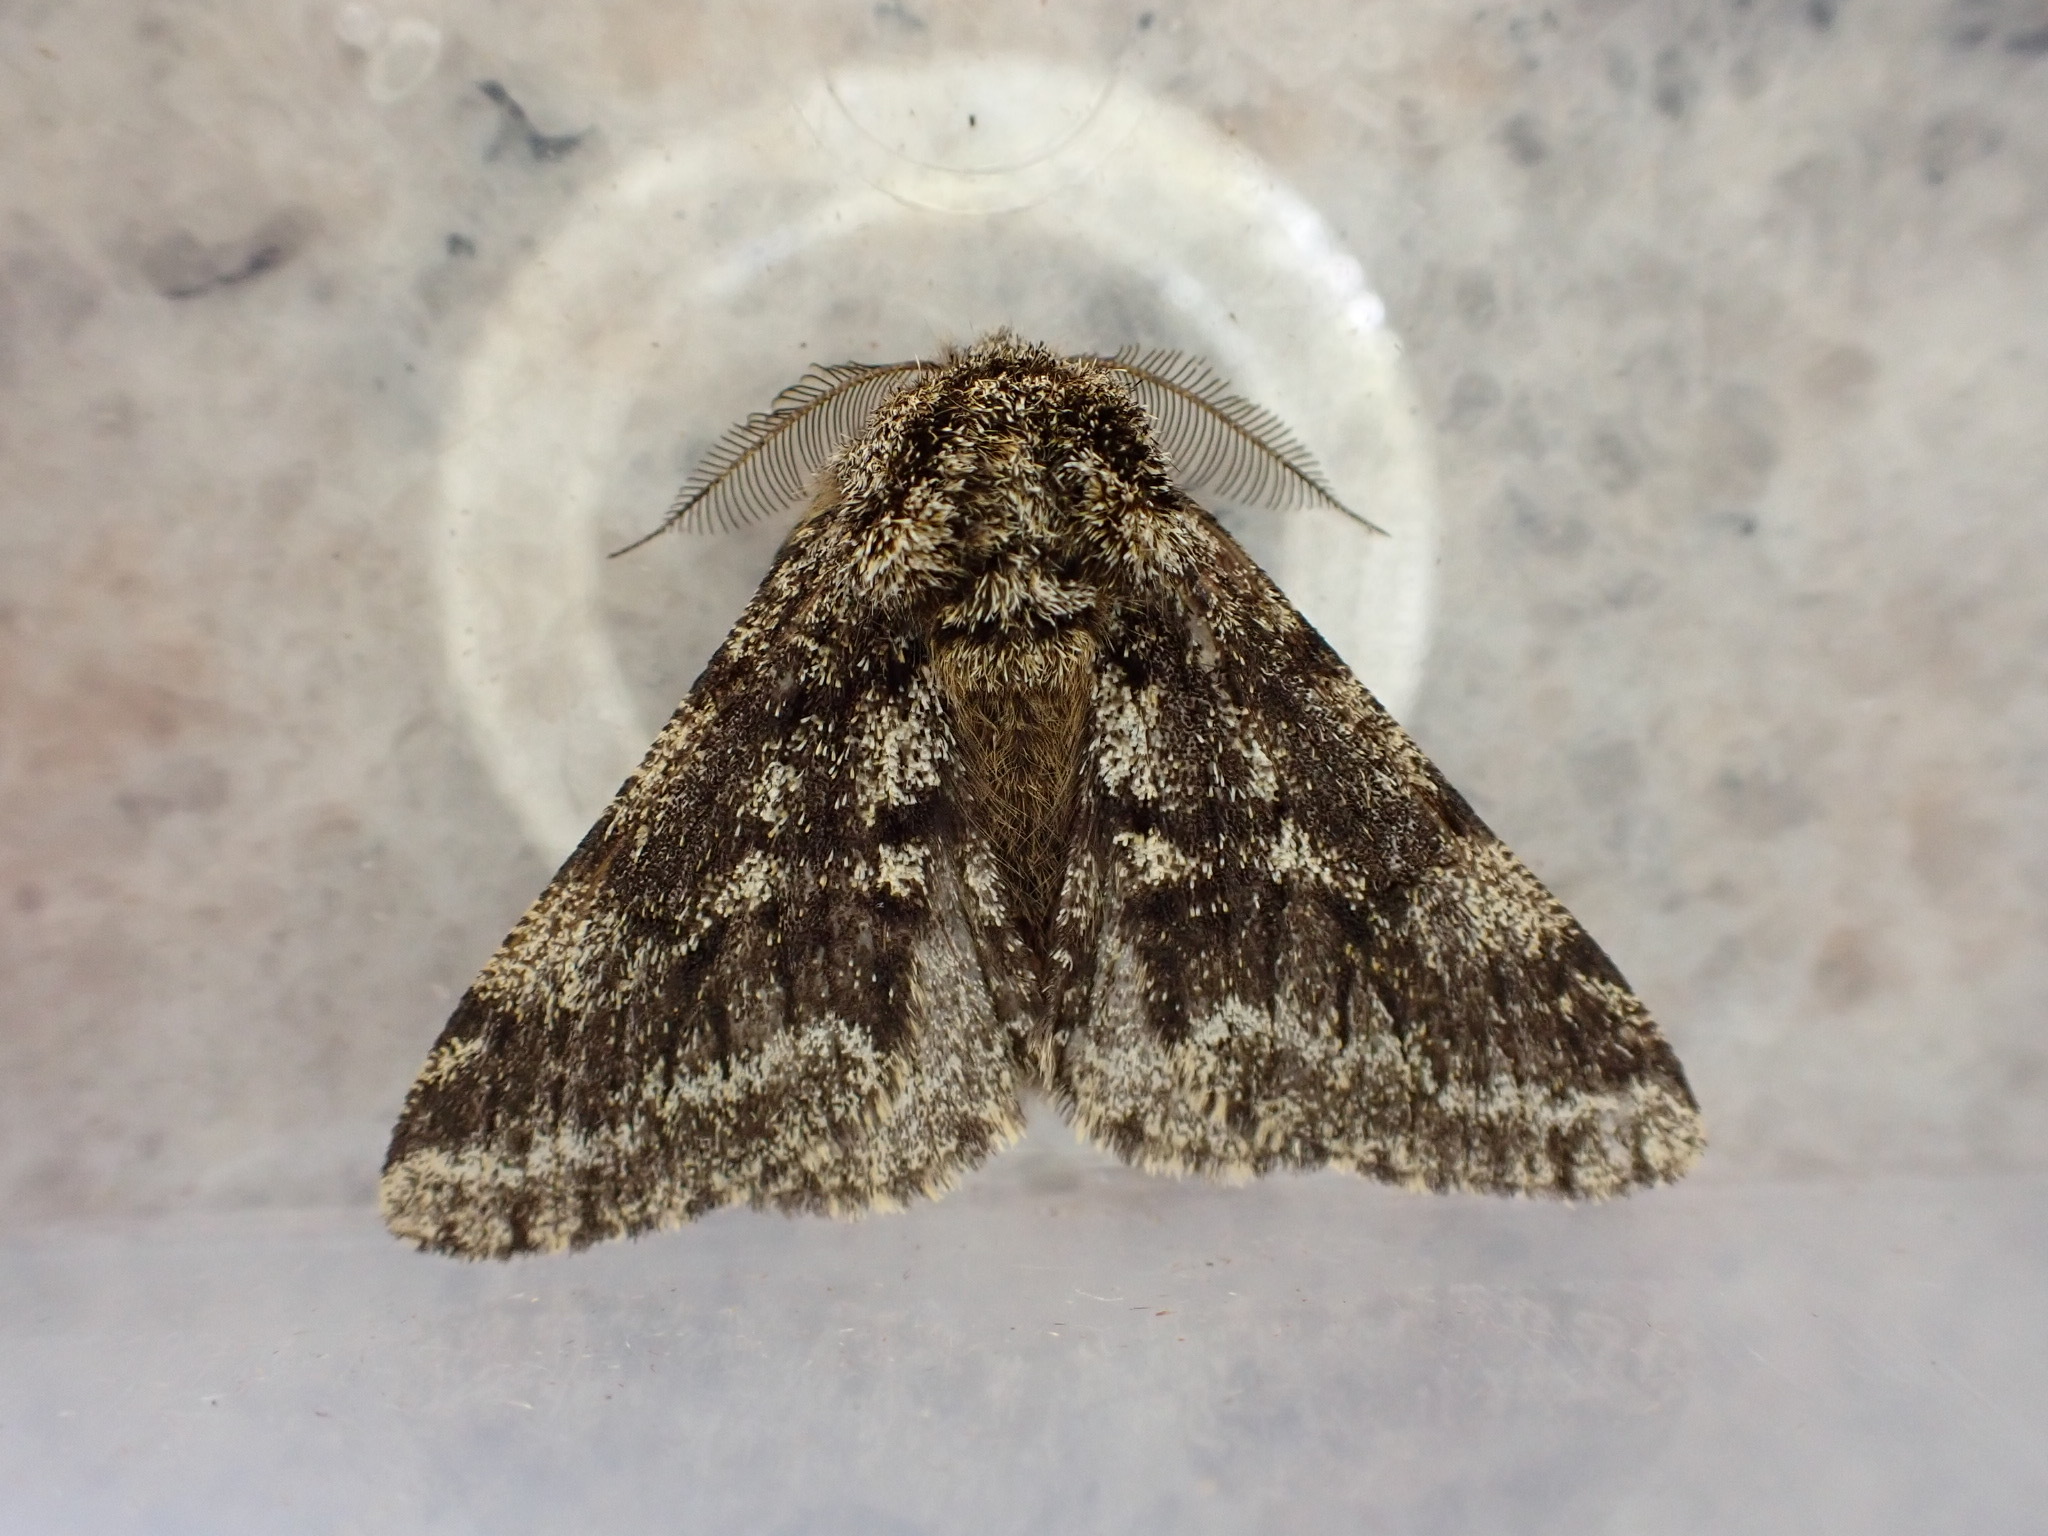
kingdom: Animalia
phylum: Arthropoda
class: Insecta
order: Lepidoptera
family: Geometridae
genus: Lycia
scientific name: Lycia hirtaria
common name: Brindled beauty
